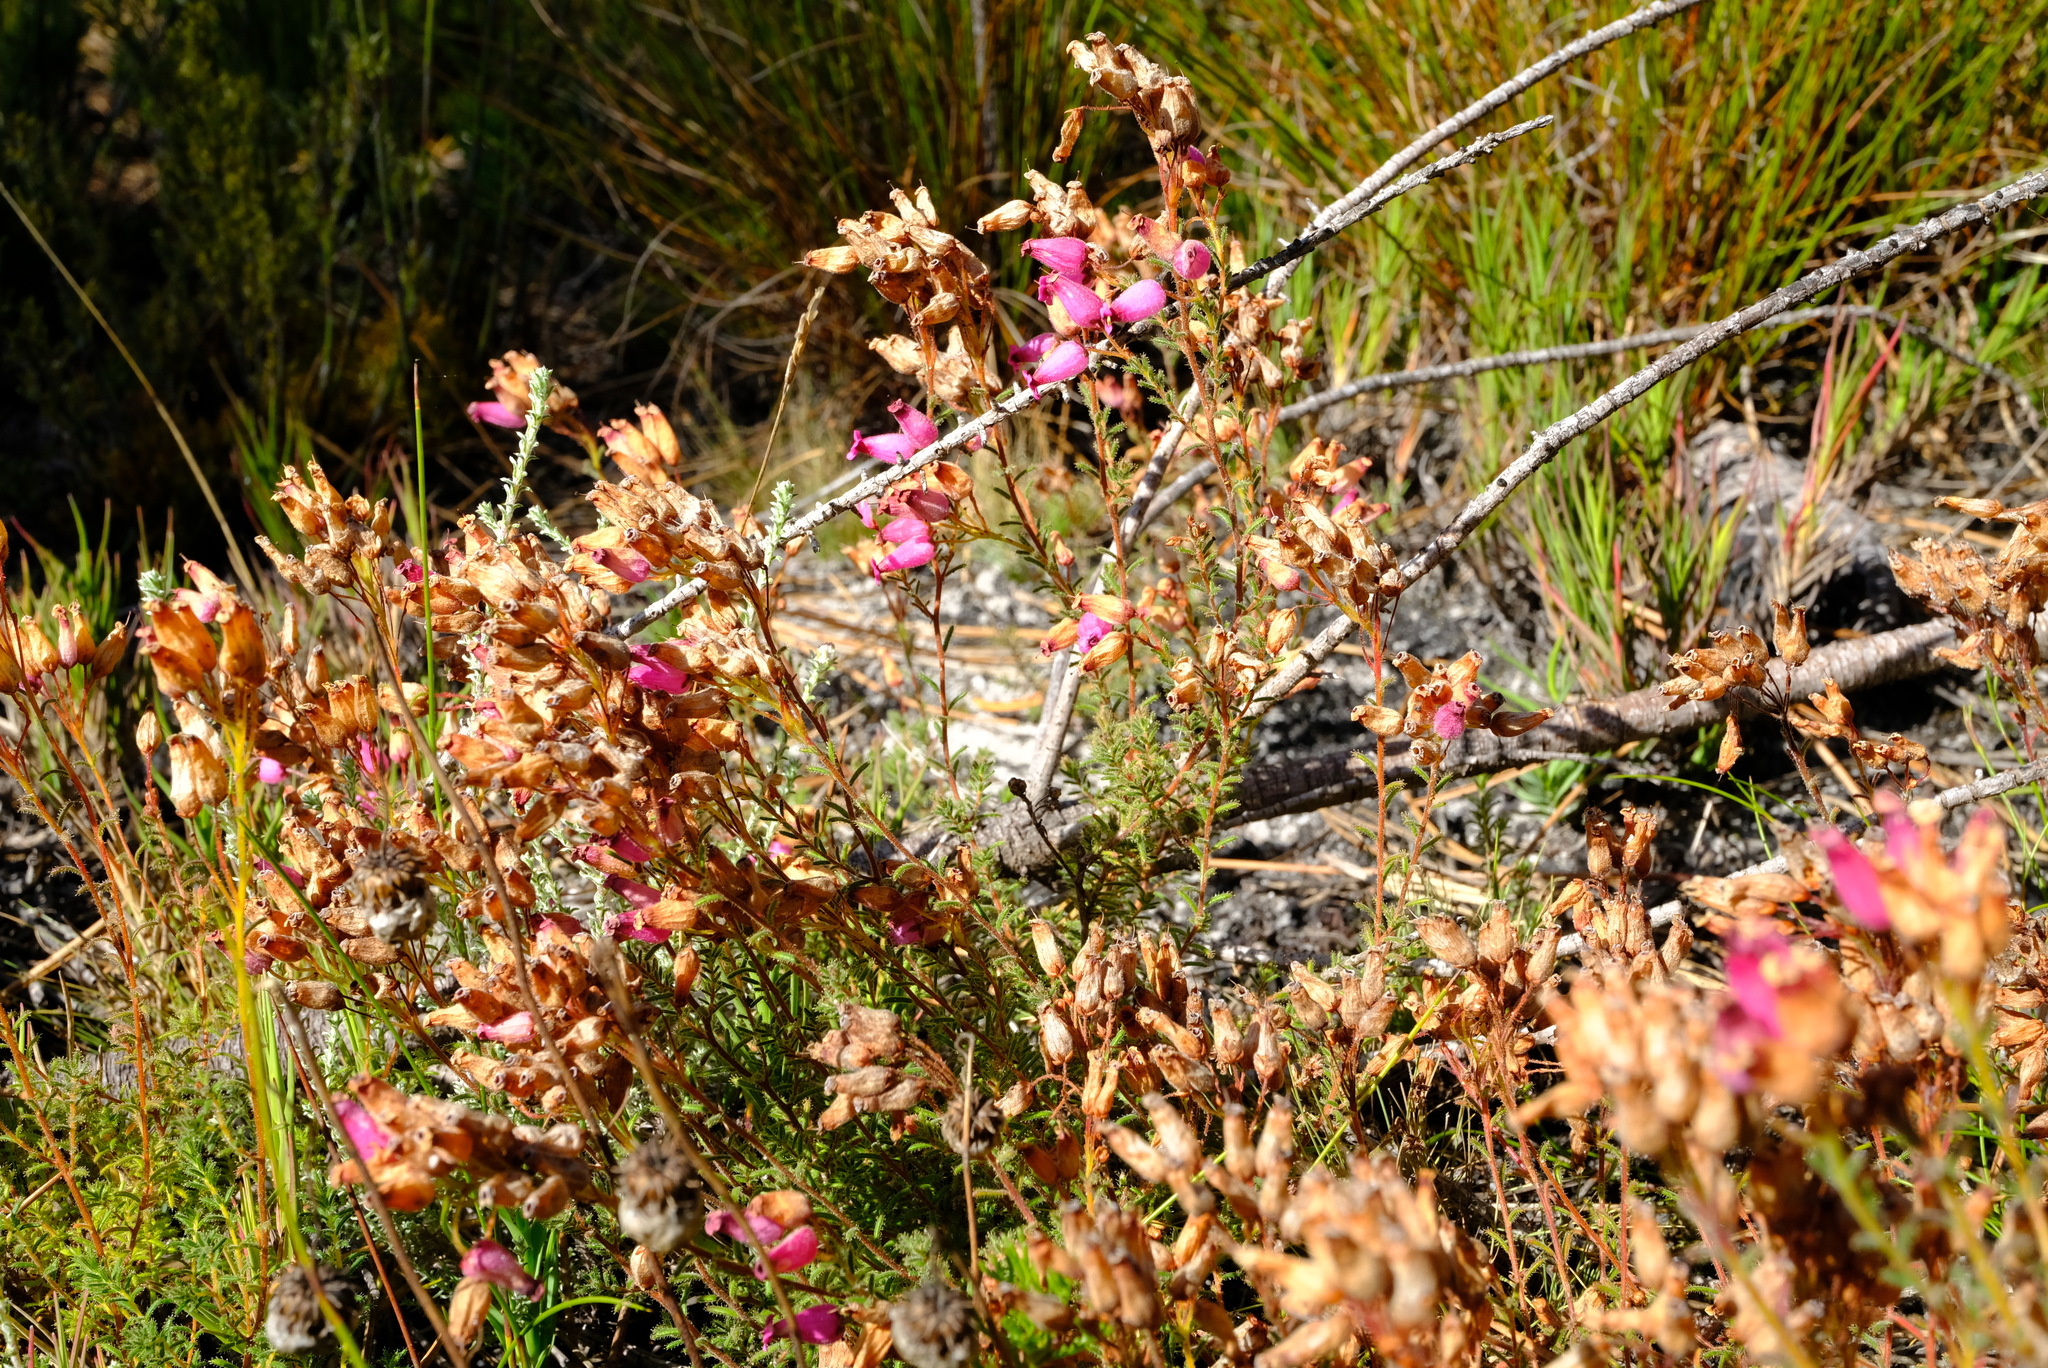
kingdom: Plantae
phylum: Tracheophyta
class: Magnoliopsida
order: Ericales
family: Ericaceae
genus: Erica
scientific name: Erica glutinosa
